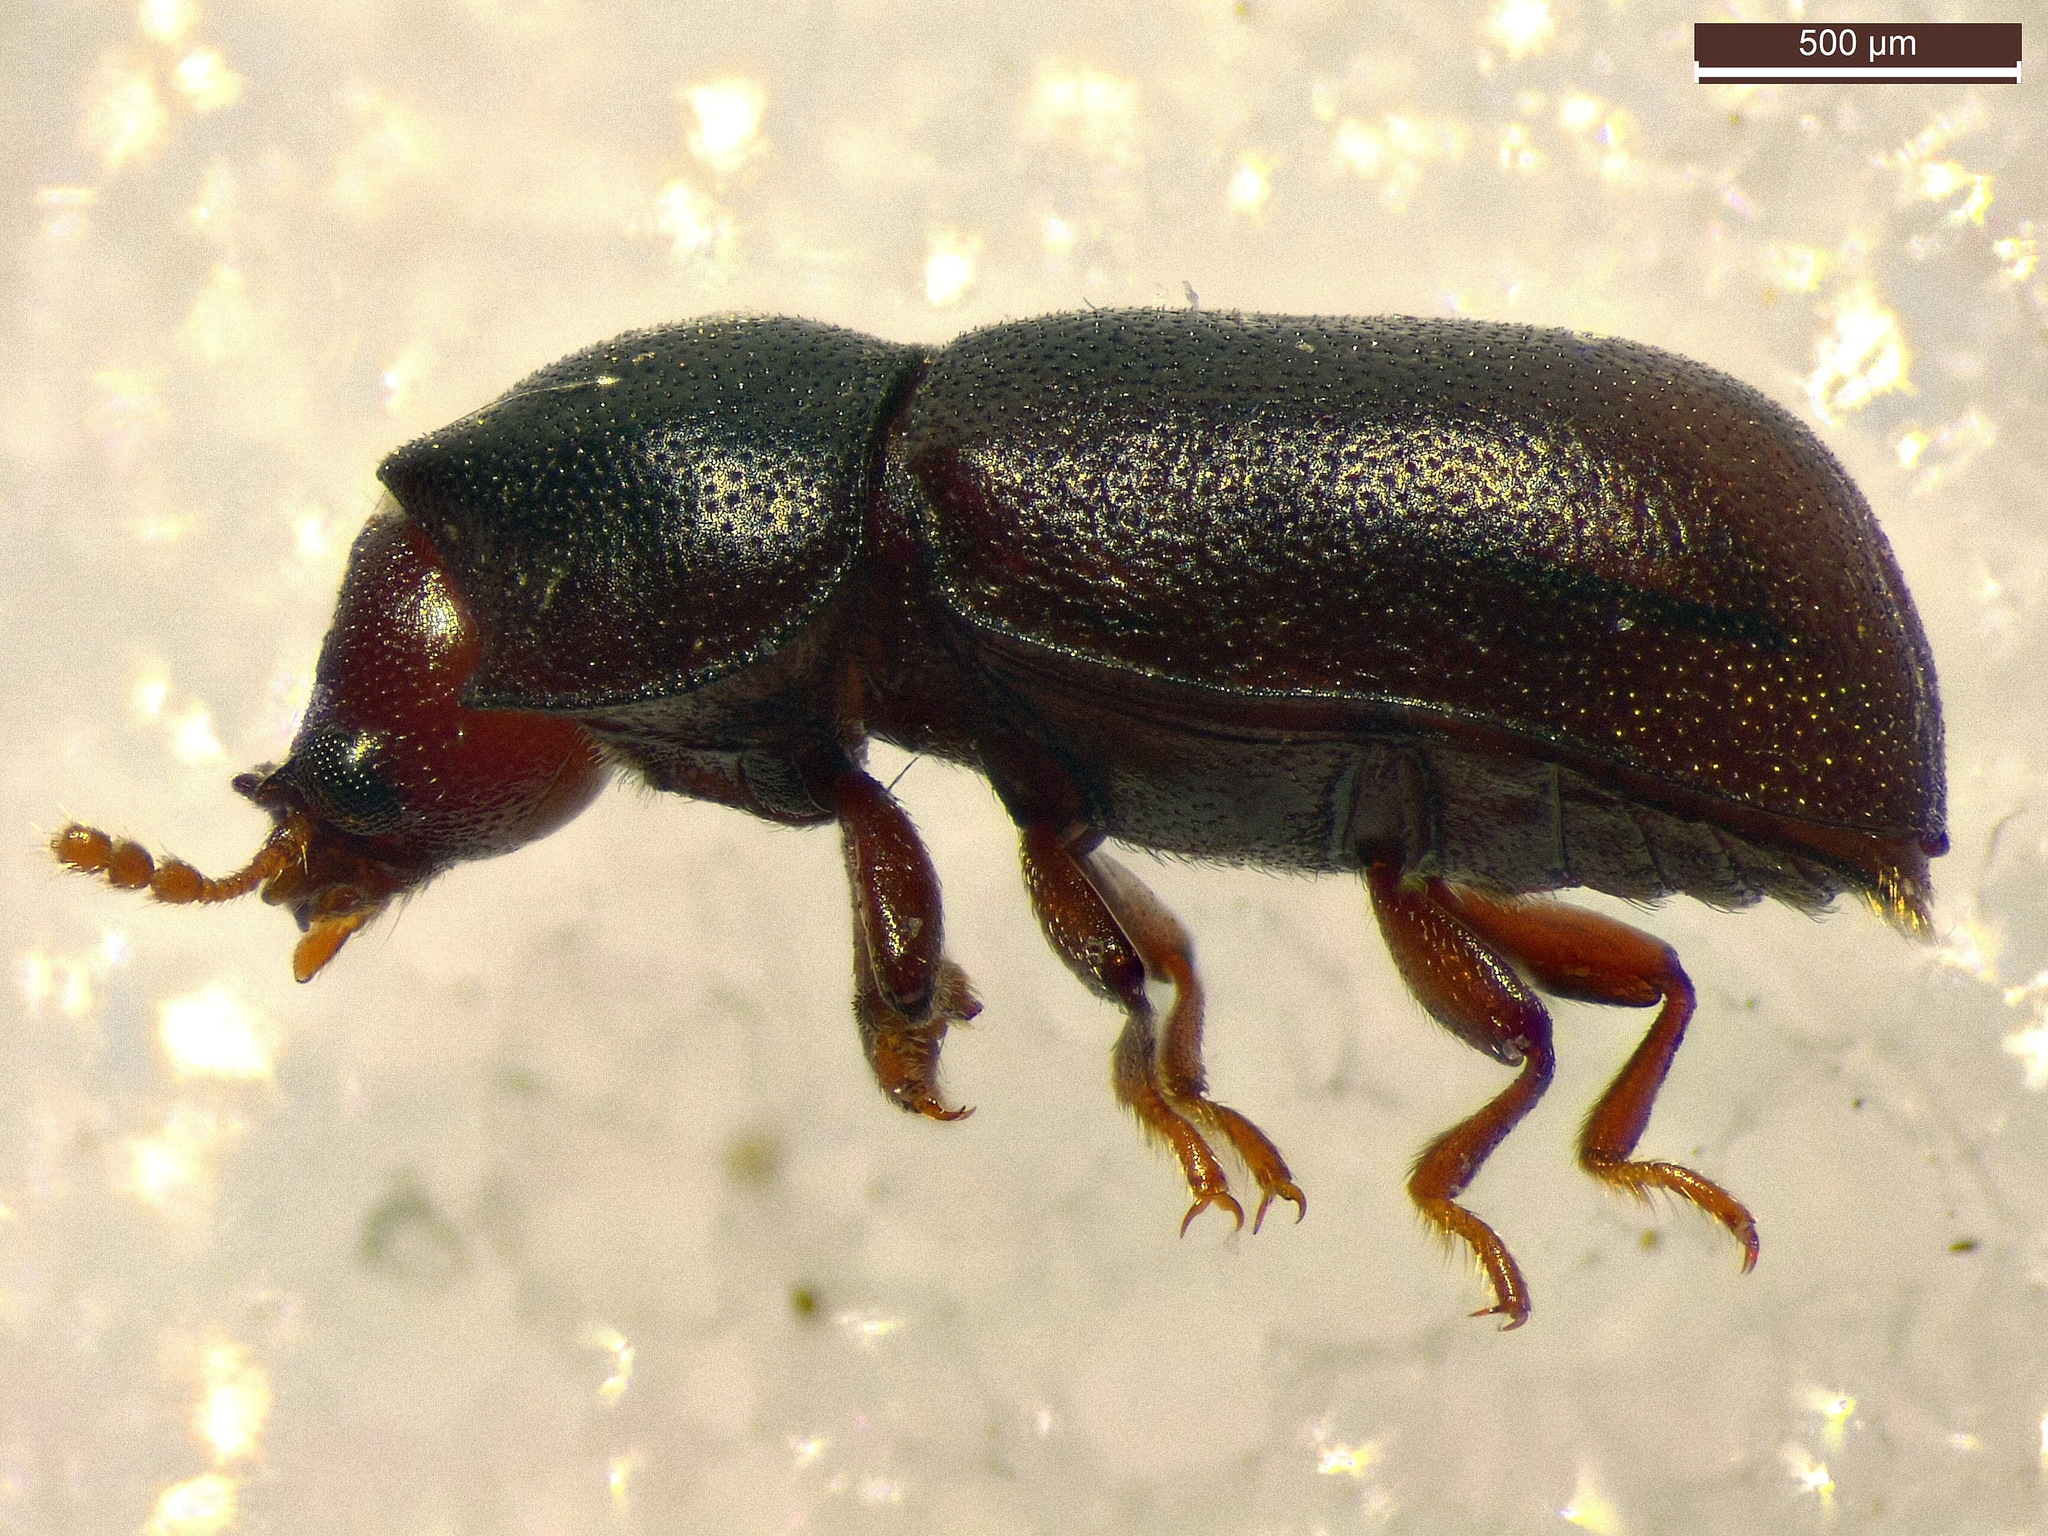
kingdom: Animalia
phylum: Arthropoda
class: Insecta
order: Coleoptera
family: Ciidae
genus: Cis
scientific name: Cis bidentatus
